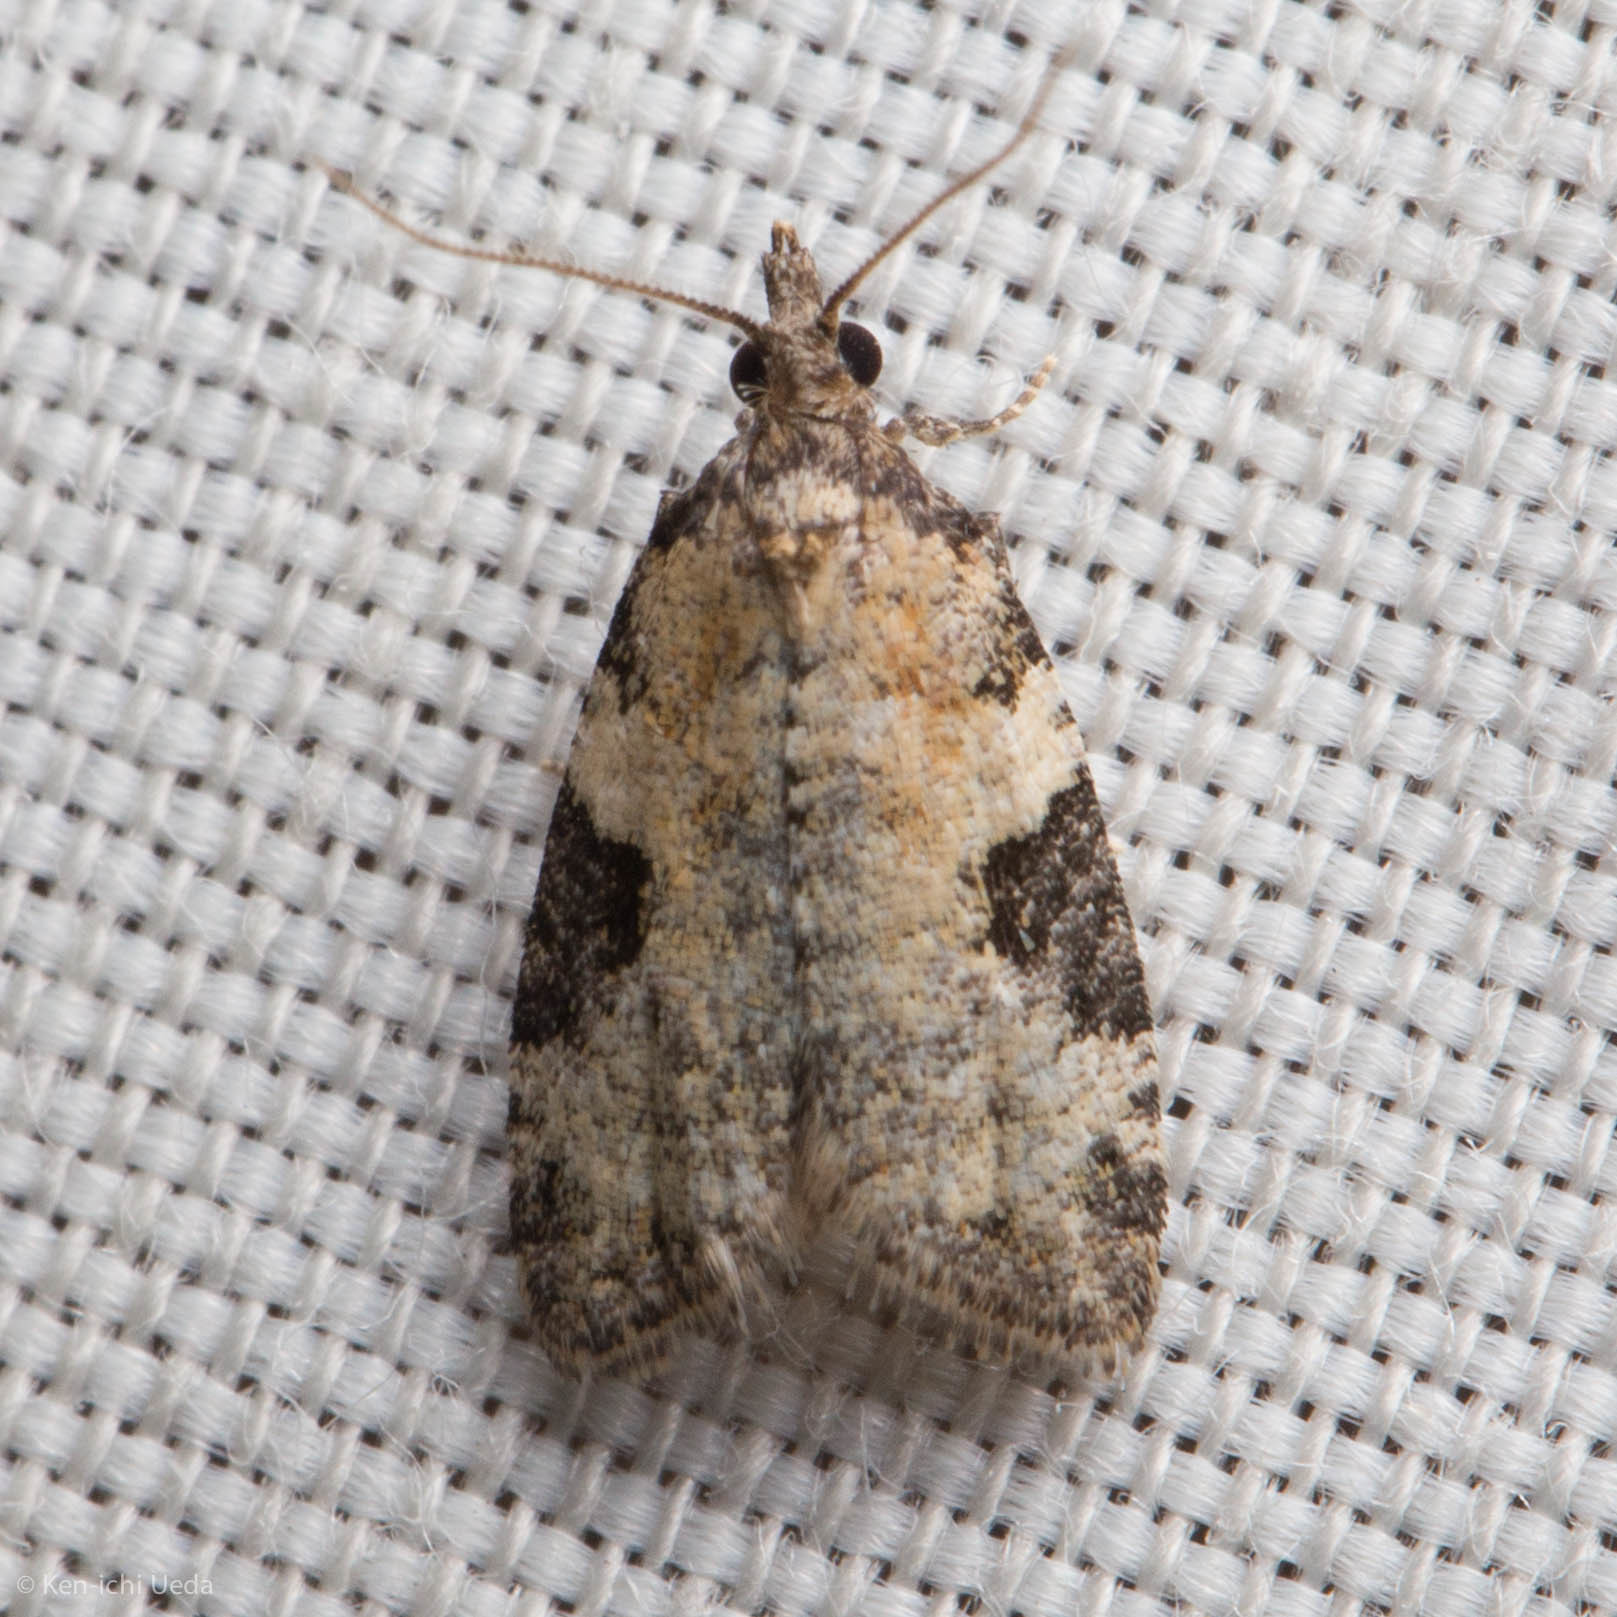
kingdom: Animalia
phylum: Arthropoda
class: Insecta
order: Lepidoptera
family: Tortricidae
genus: Anopina
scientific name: Anopina triangulana
